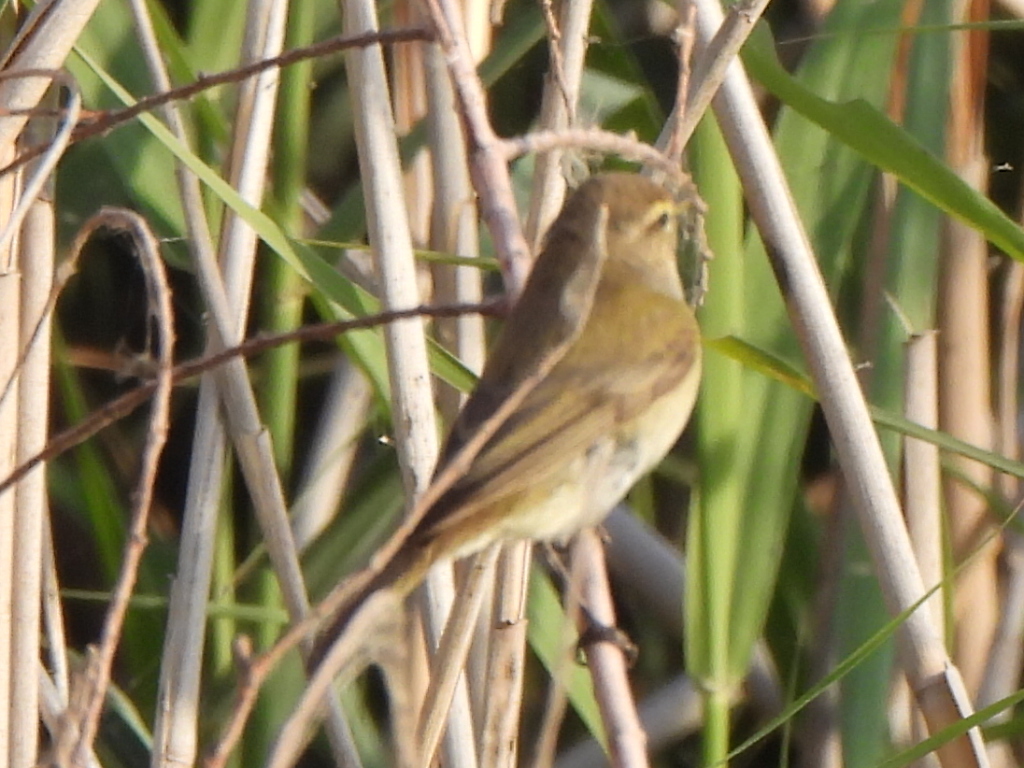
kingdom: Animalia
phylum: Chordata
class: Aves
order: Passeriformes
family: Phylloscopidae
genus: Phylloscopus
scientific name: Phylloscopus collybita
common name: Common chiffchaff
